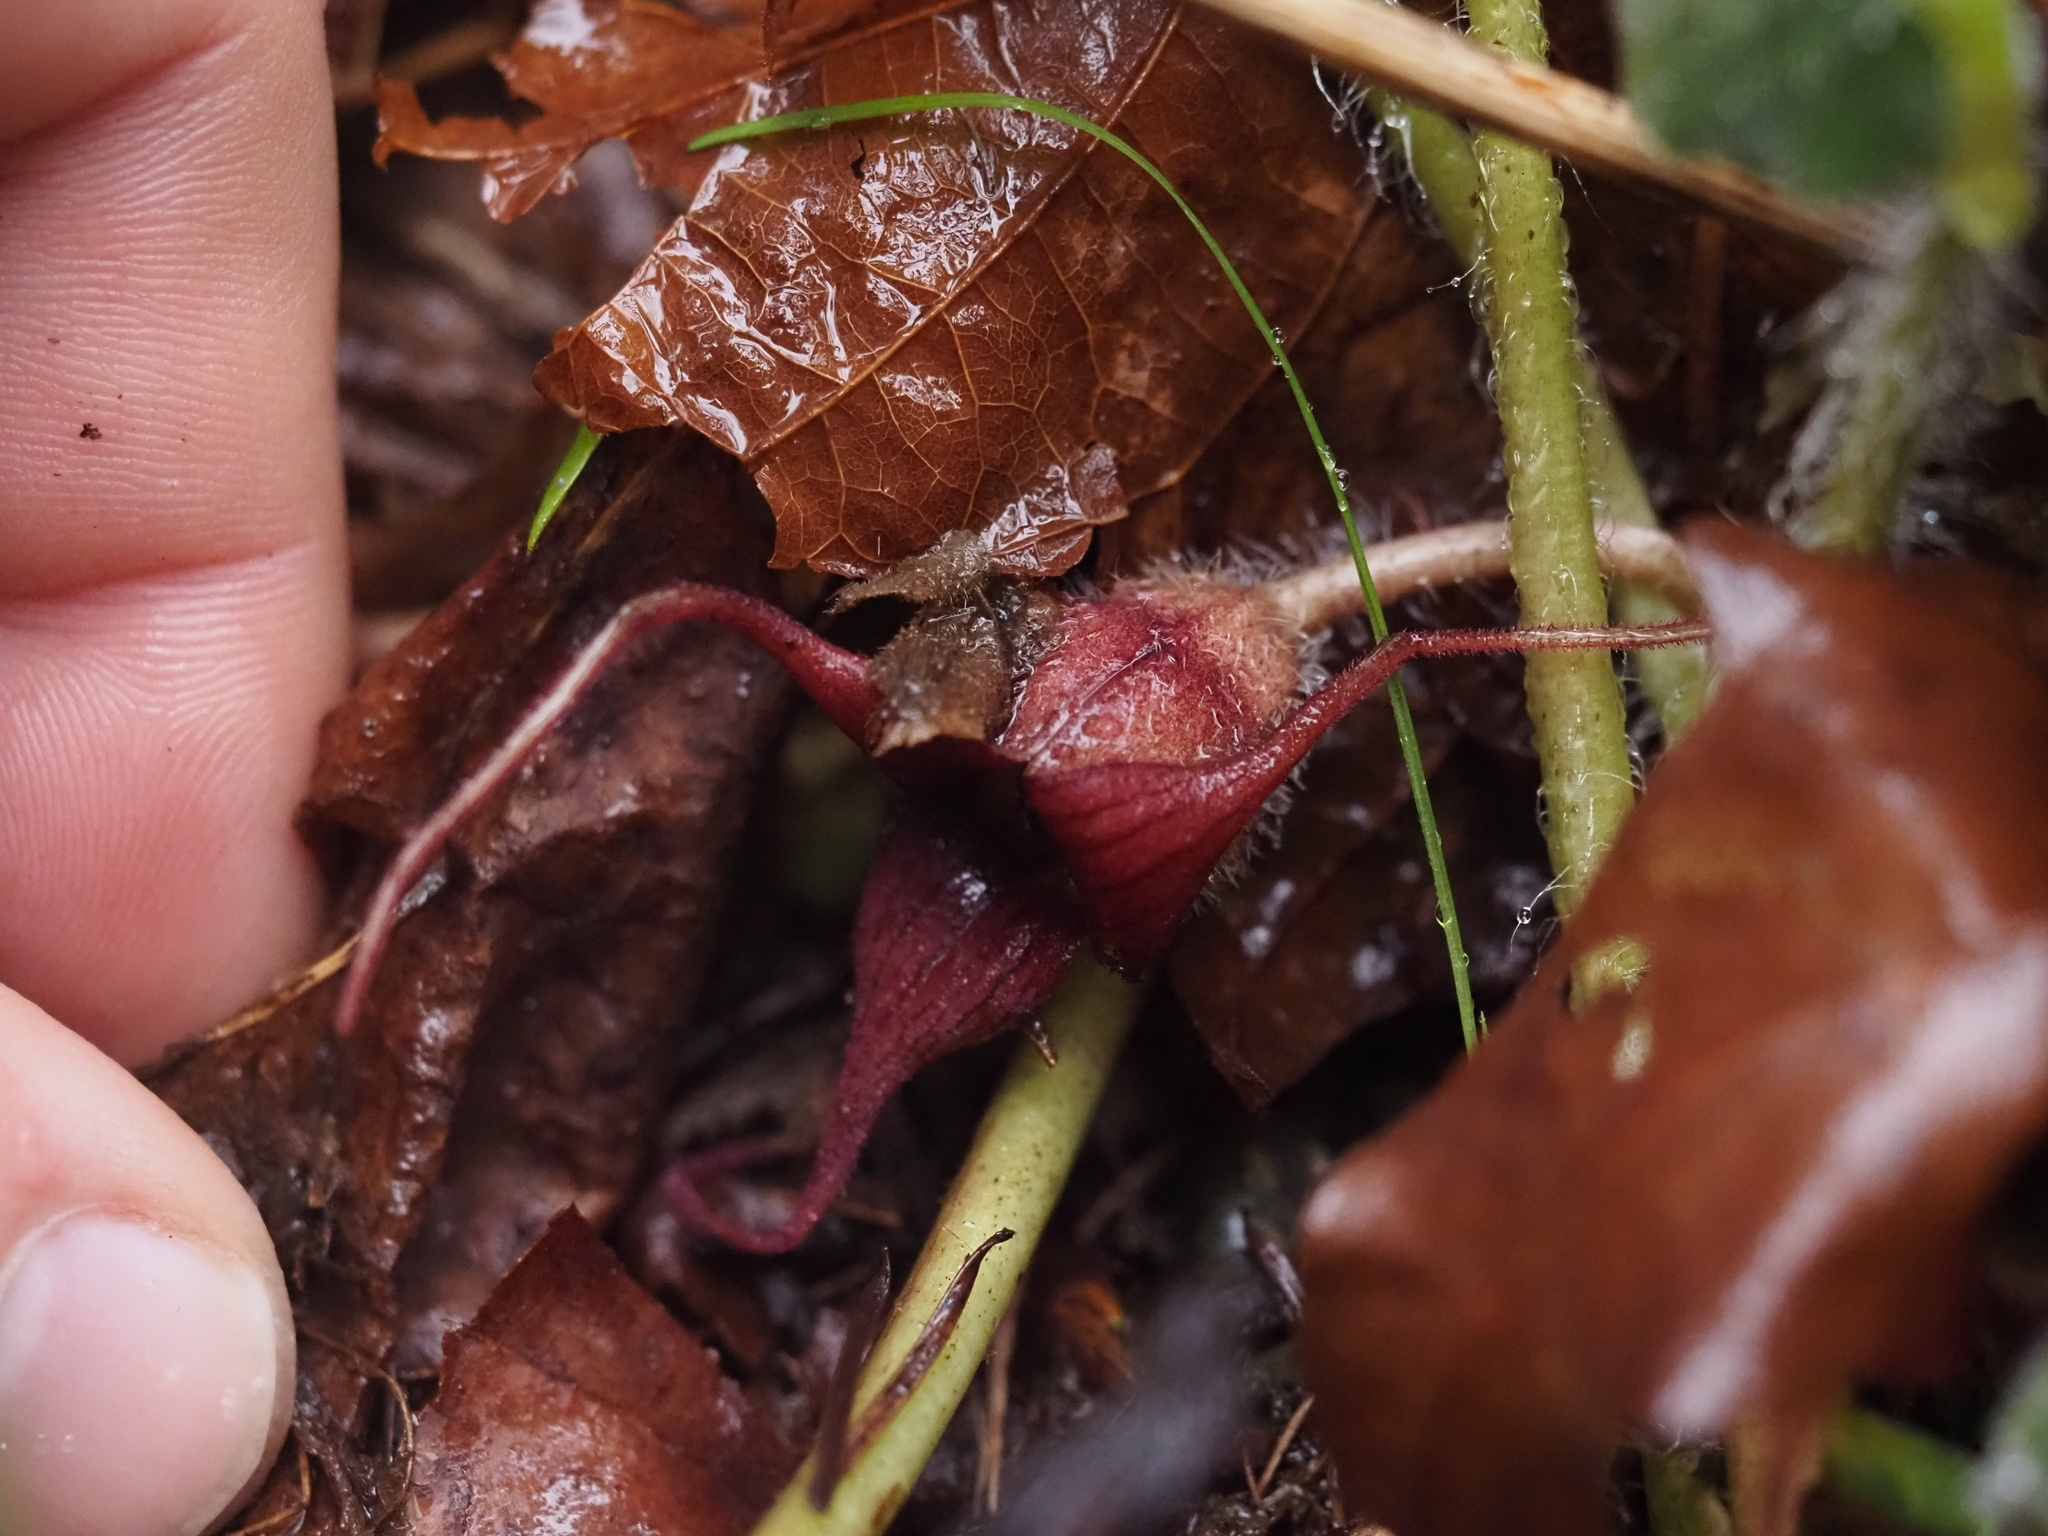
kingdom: Plantae
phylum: Tracheophyta
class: Magnoliopsida
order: Piperales
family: Aristolochiaceae
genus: Asarum
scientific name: Asarum caudatum
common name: Wild ginger
